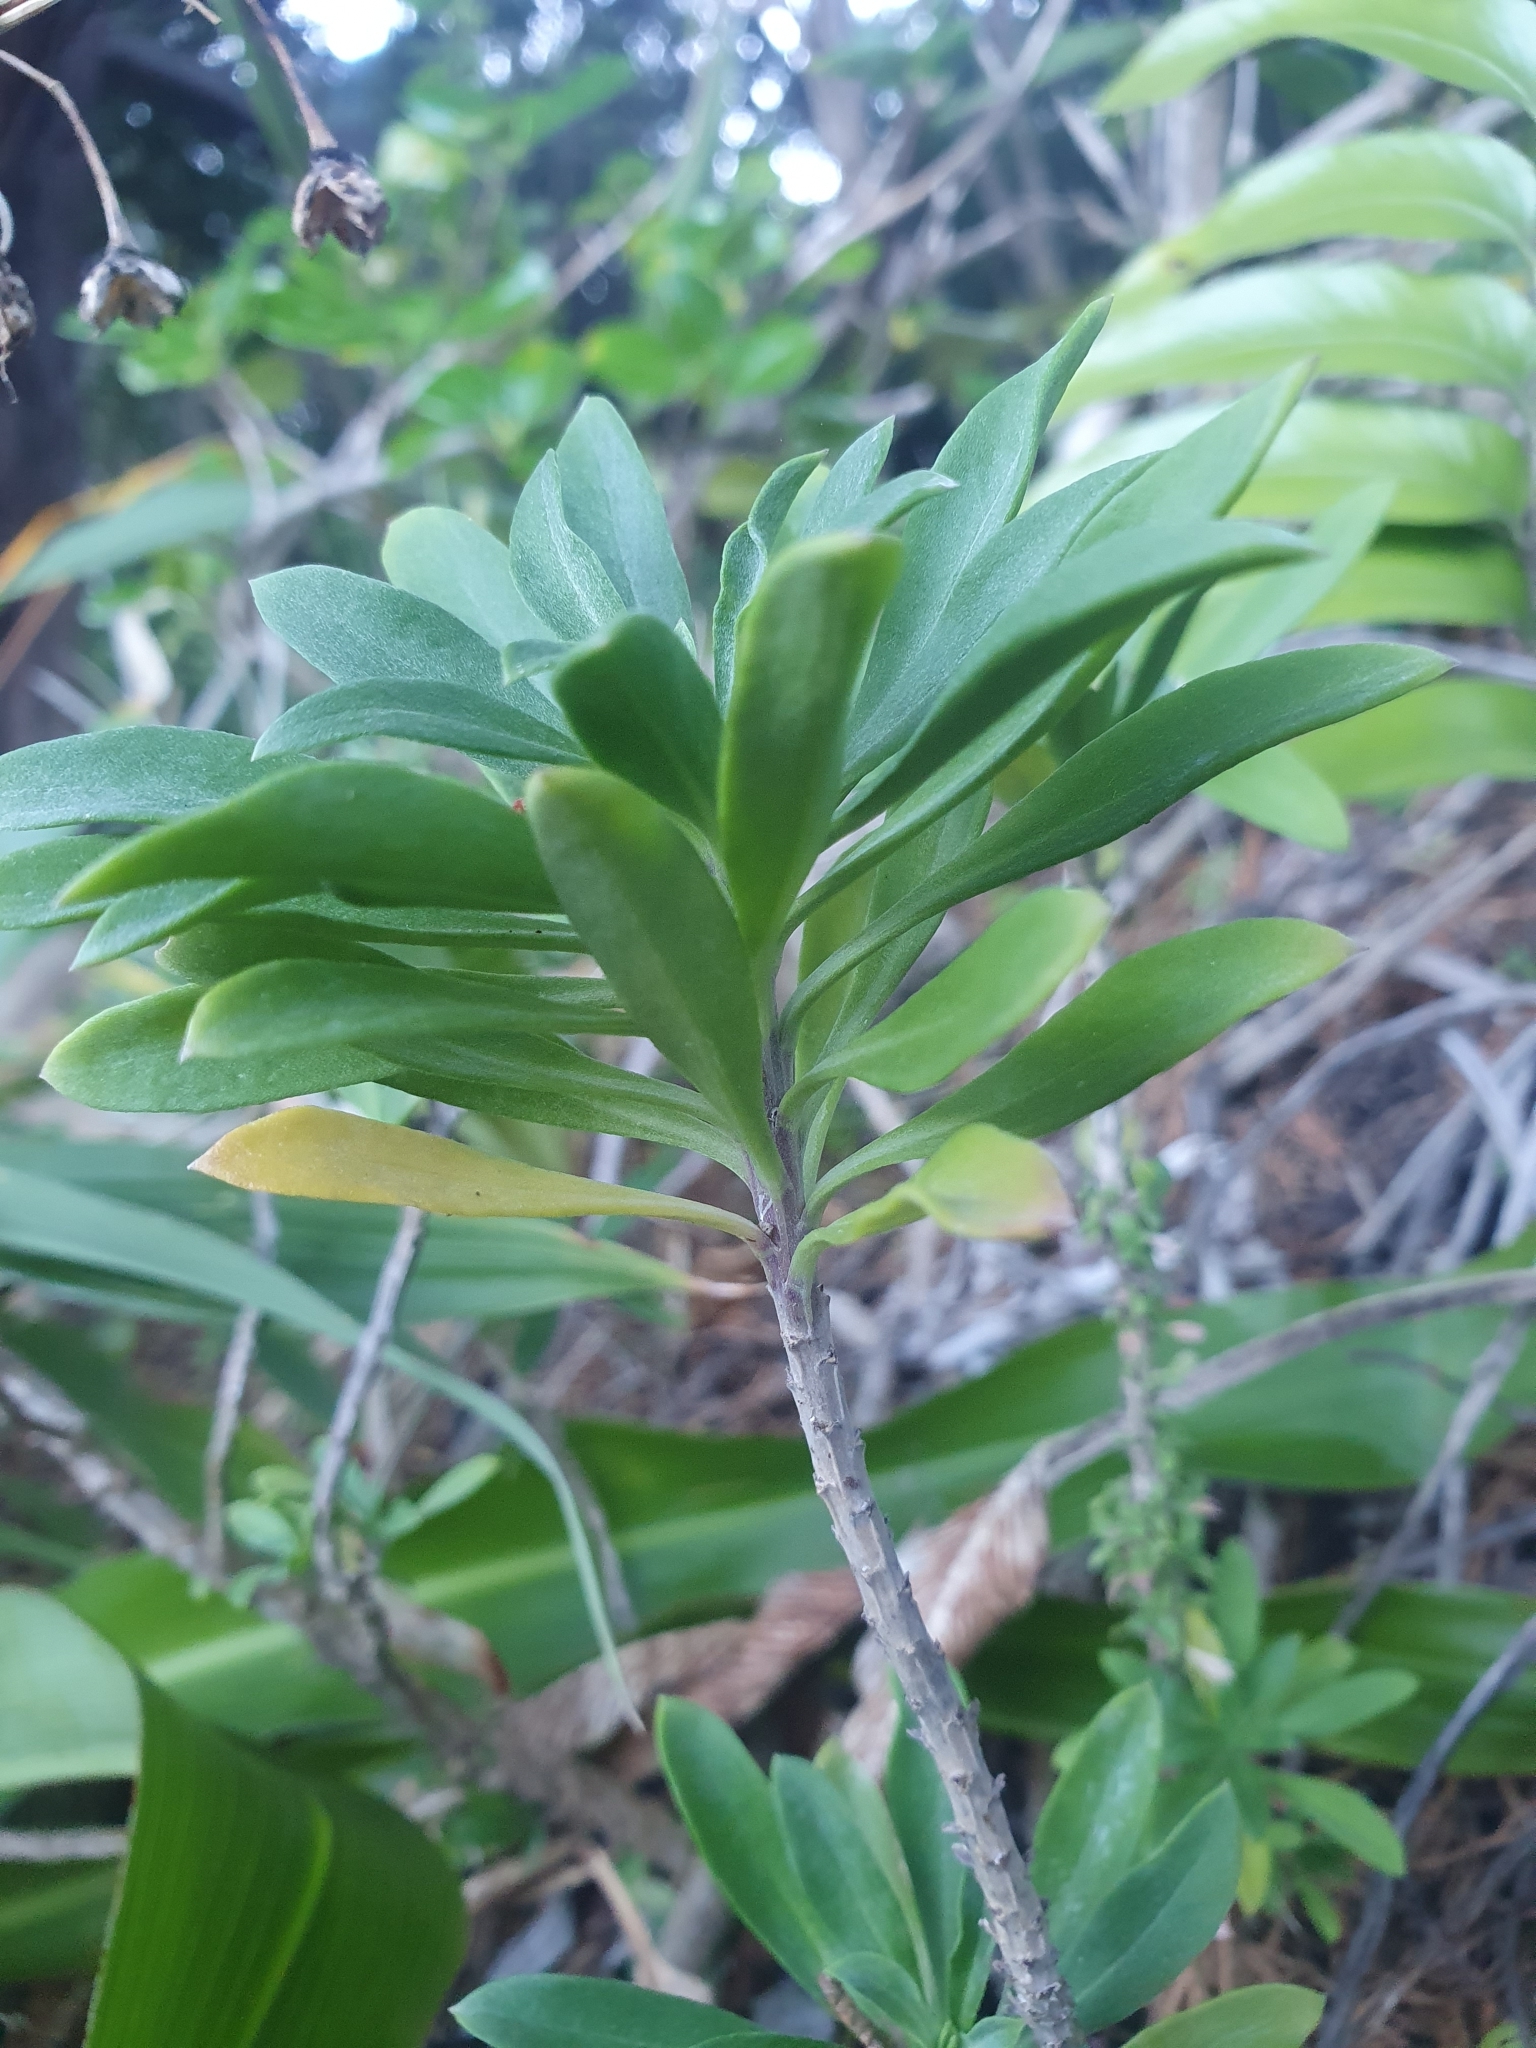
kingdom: Plantae
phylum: Tracheophyta
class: Magnoliopsida
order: Brassicales
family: Brassicaceae
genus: Erysimum
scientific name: Erysimum cheiri
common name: Wallflower
